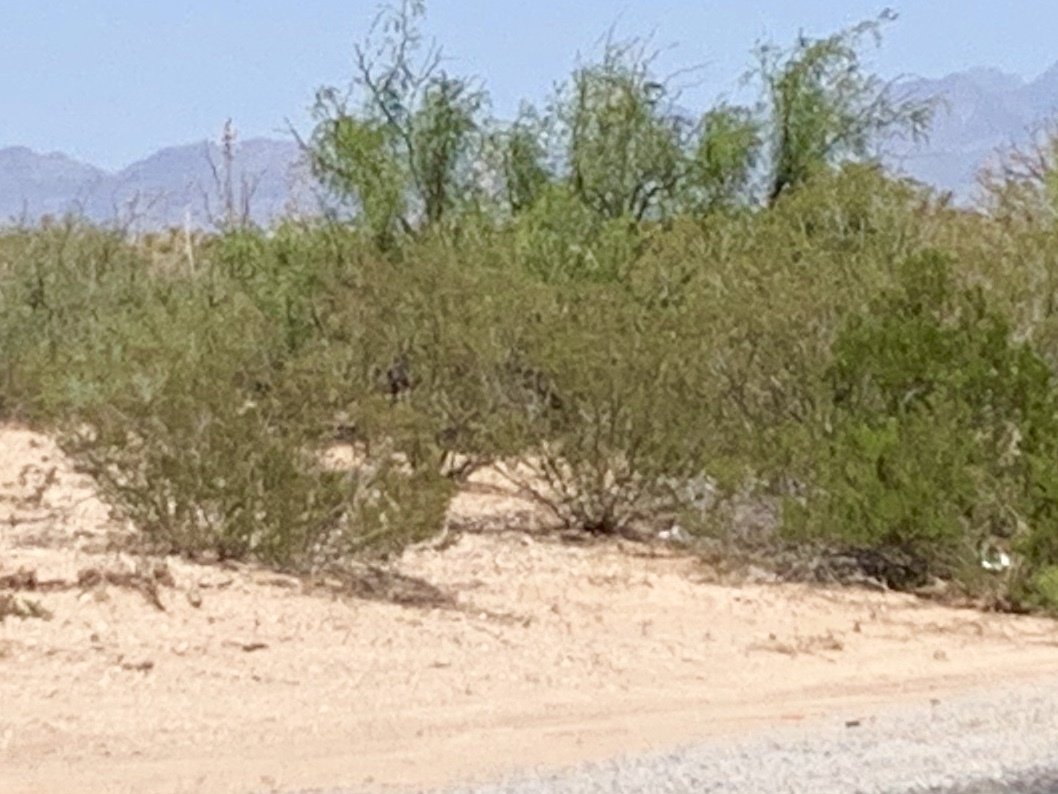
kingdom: Plantae
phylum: Tracheophyta
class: Magnoliopsida
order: Zygophyllales
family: Zygophyllaceae
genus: Larrea
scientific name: Larrea tridentata
